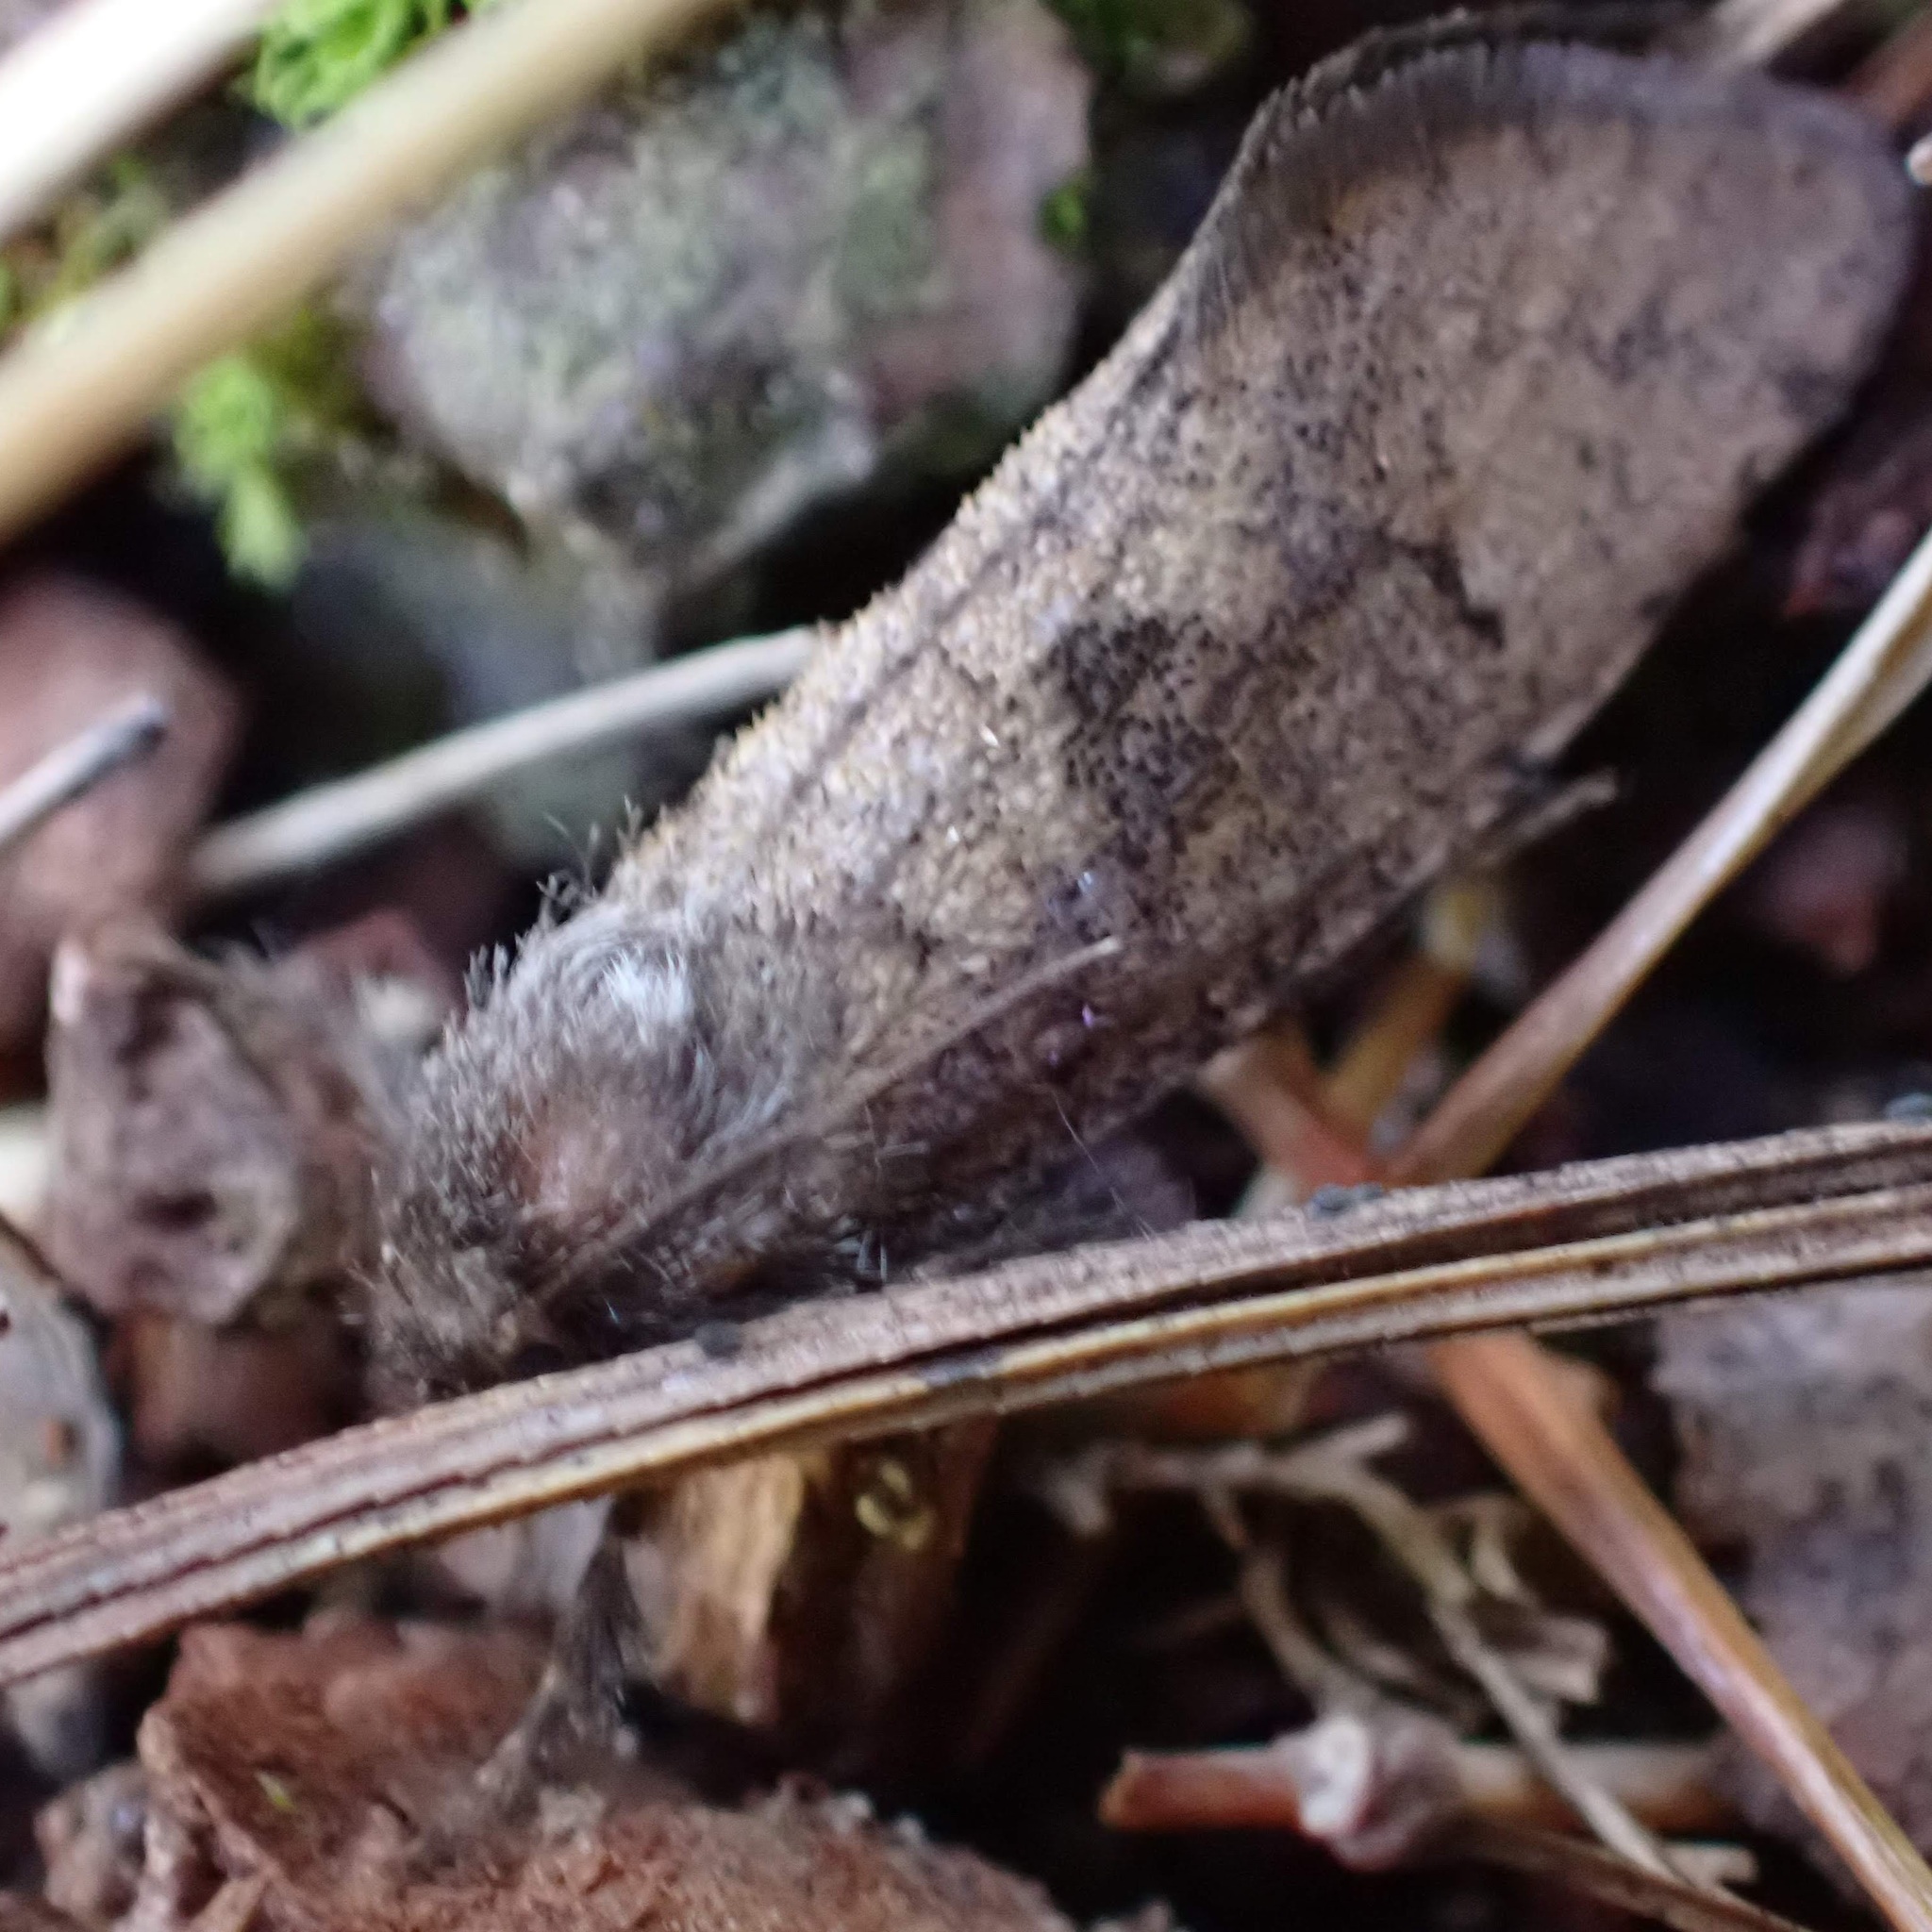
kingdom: Animalia
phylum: Arthropoda
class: Insecta
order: Lepidoptera
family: Tineidae
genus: Acrolophus
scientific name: Acrolophus mora
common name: Dark acrolophus
